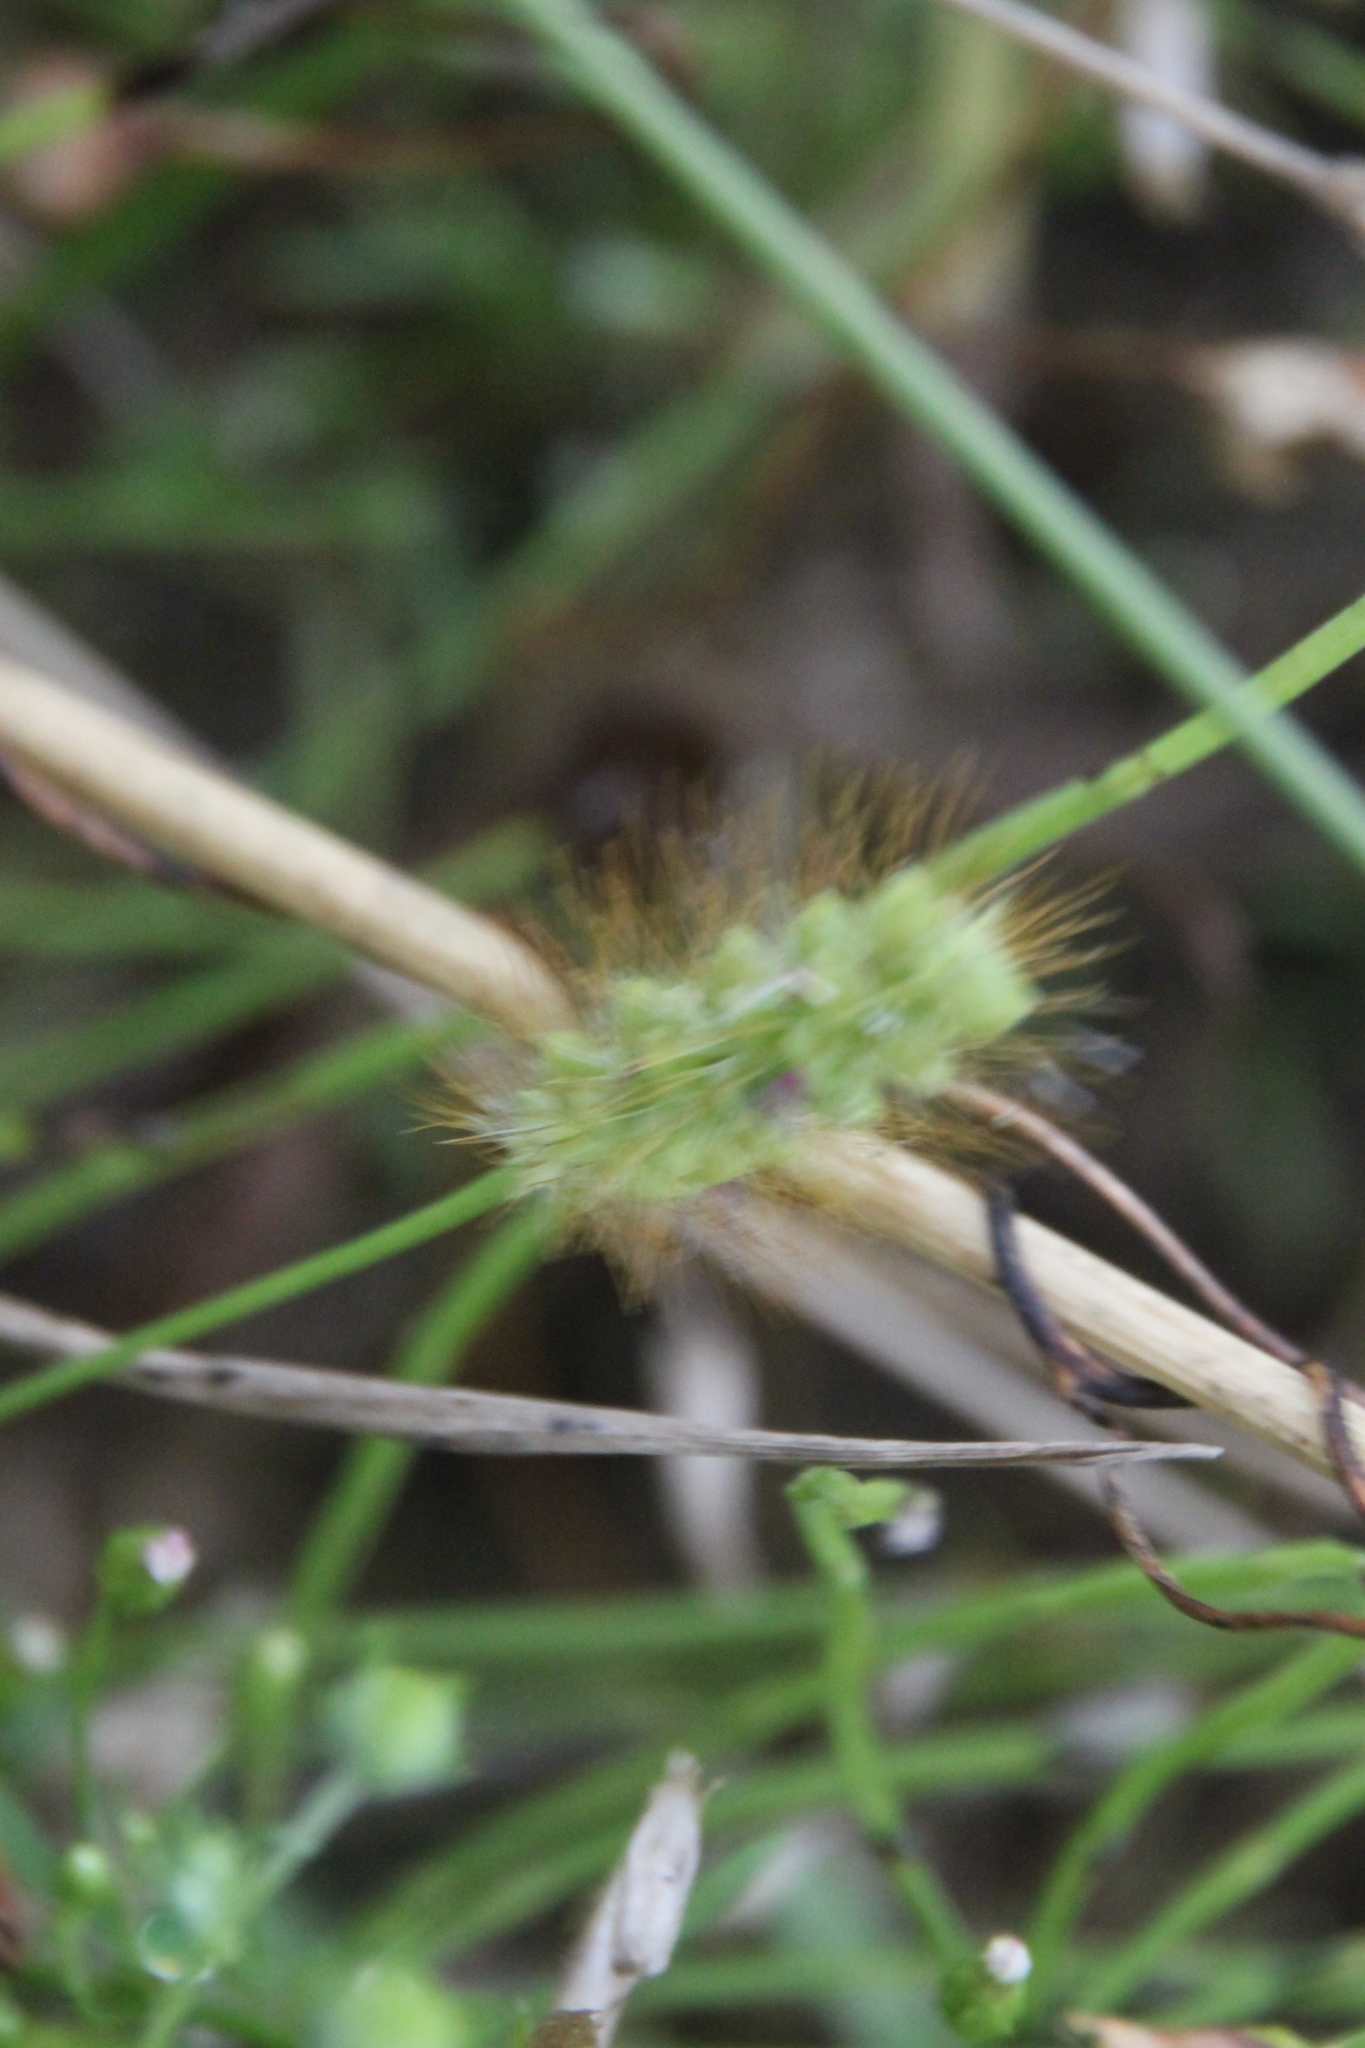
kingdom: Plantae
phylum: Tracheophyta
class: Liliopsida
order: Poales
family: Poaceae
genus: Setaria
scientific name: Setaria pumila
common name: Yellow bristle-grass
